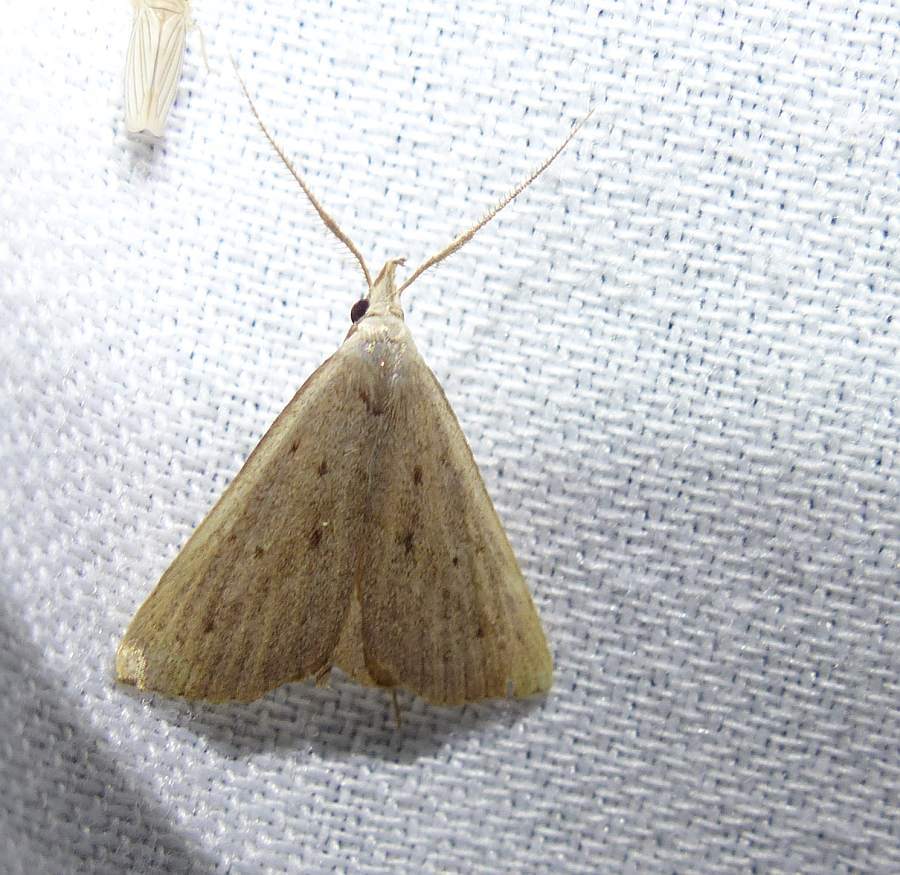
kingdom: Animalia
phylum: Arthropoda
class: Insecta
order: Lepidoptera
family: Erebidae
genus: Macrochilo
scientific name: Macrochilo louisiana
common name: Louisiana macrochilo
